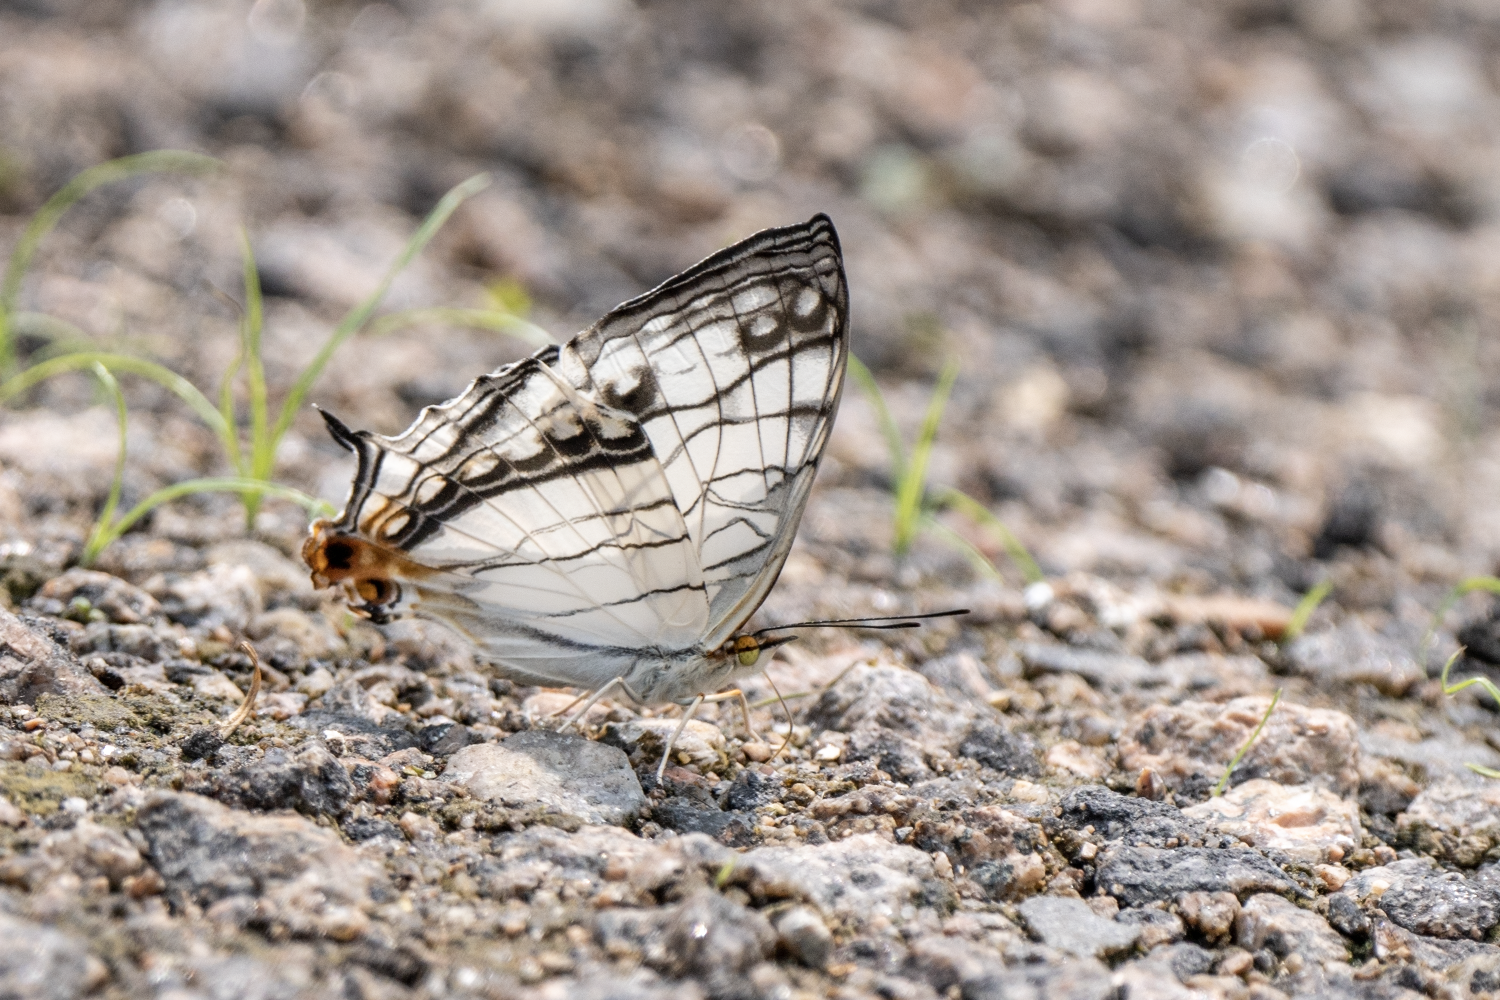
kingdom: Animalia
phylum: Arthropoda
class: Insecta
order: Lepidoptera
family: Nymphalidae
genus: Cyrestis
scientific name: Cyrestis thyodamas
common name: Common mapwing
